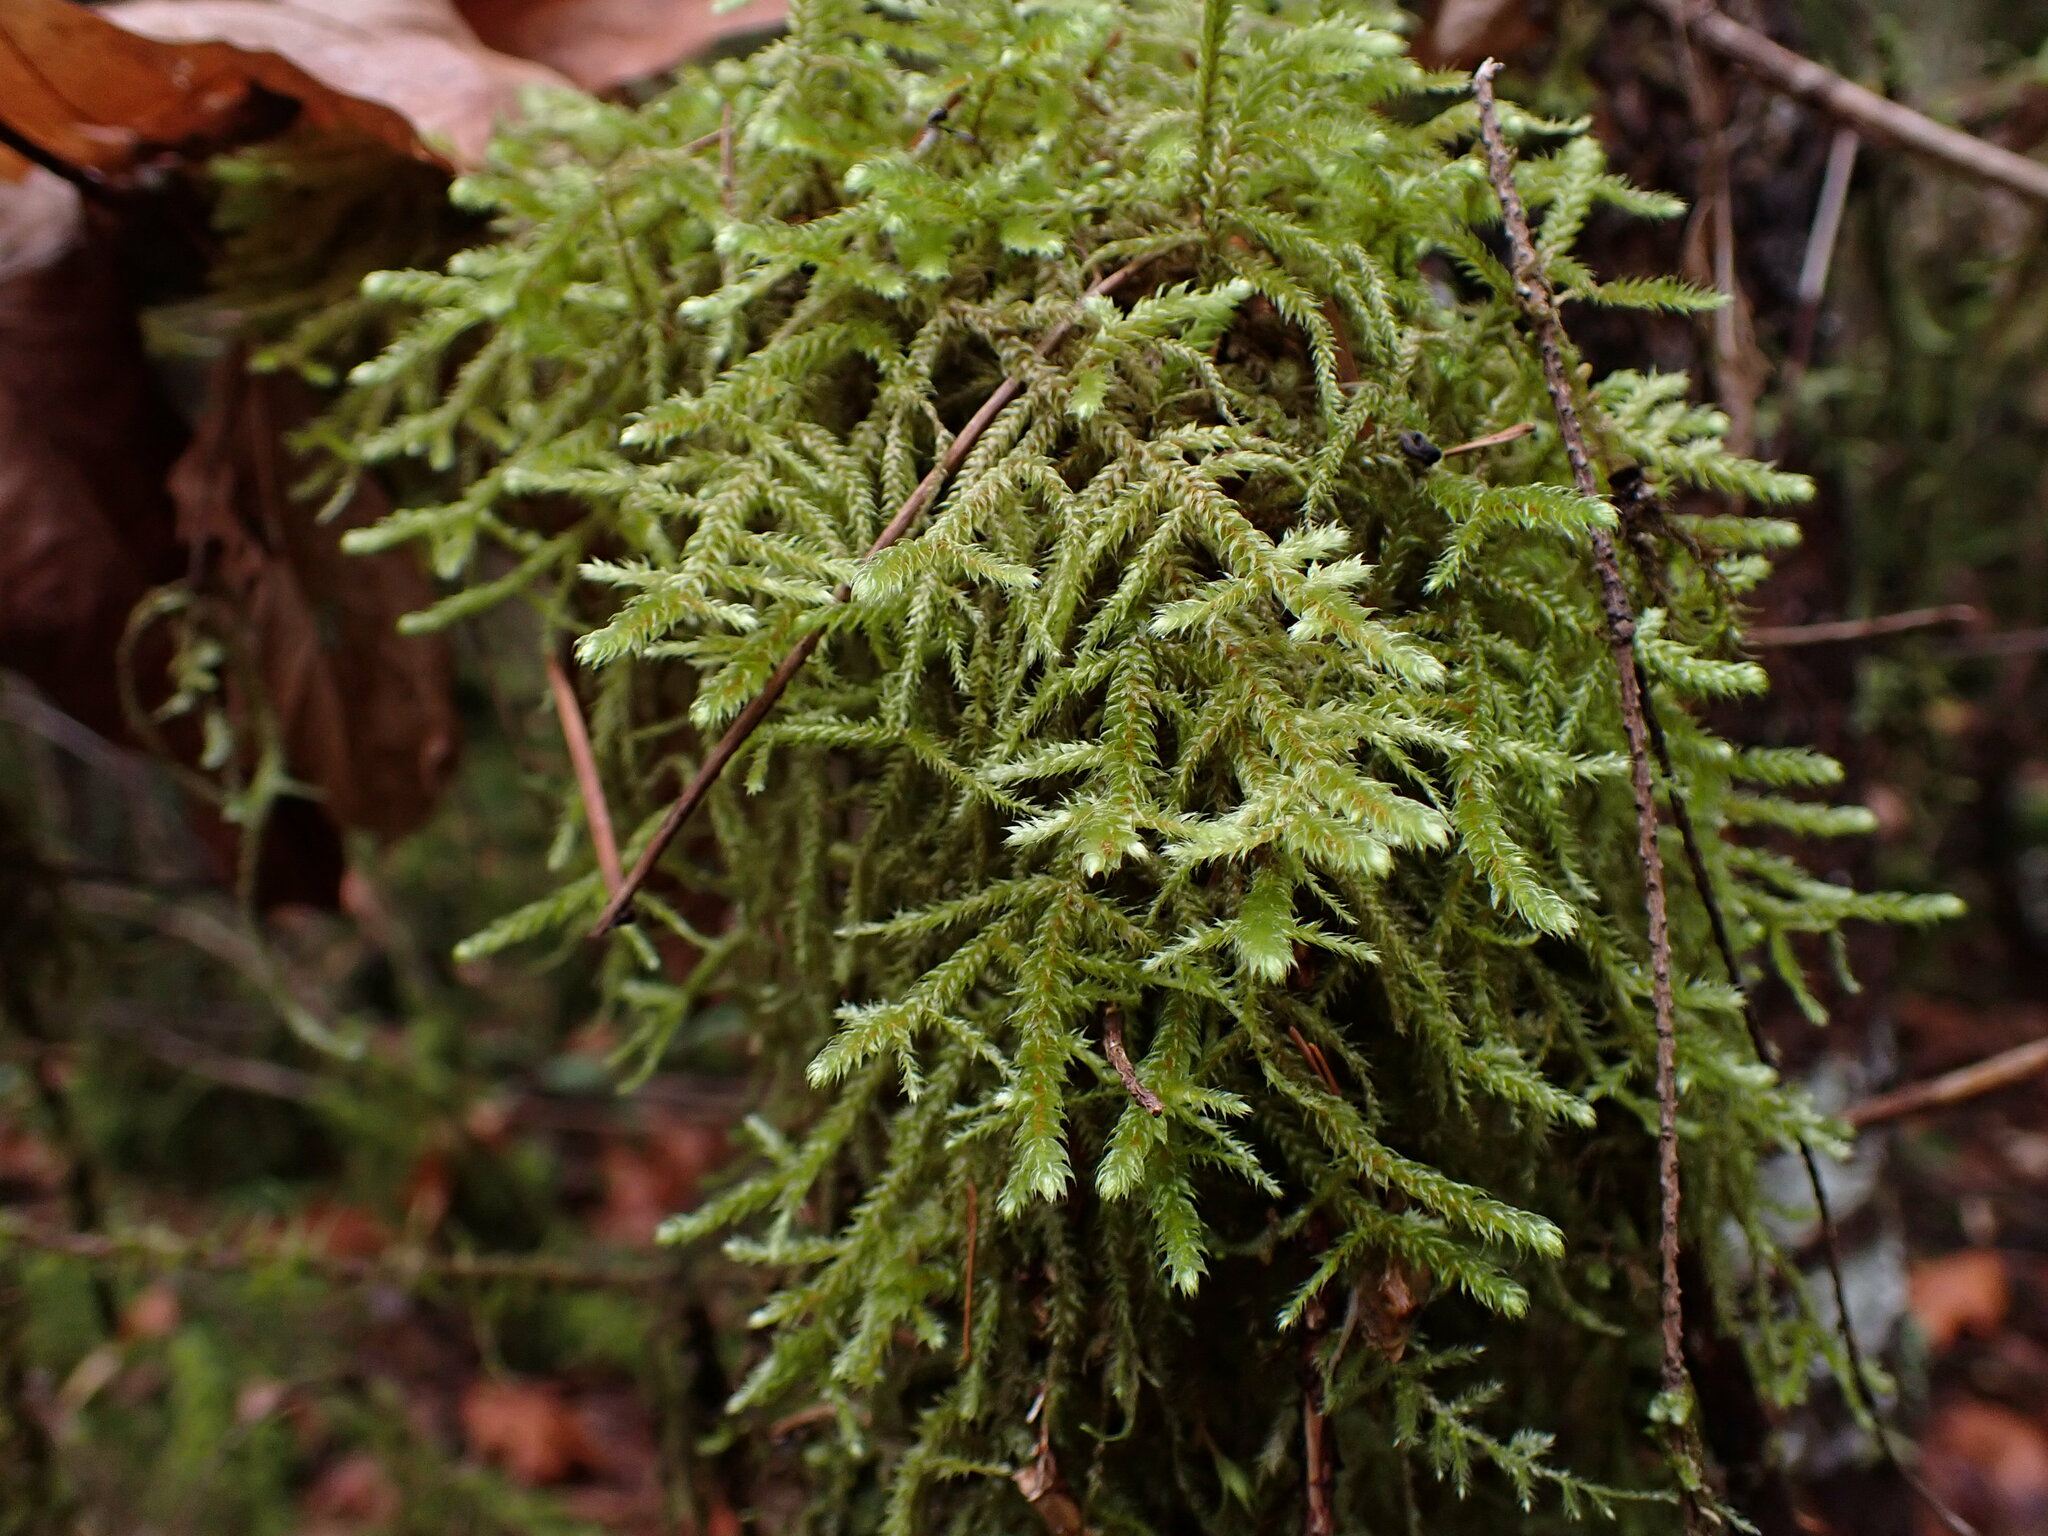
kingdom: Plantae
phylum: Bryophyta
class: Bryopsida
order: Hypnales
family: Antitrichiaceae
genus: Antitrichia
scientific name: Antitrichia curtipendula
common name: Pendulous wing-moss
